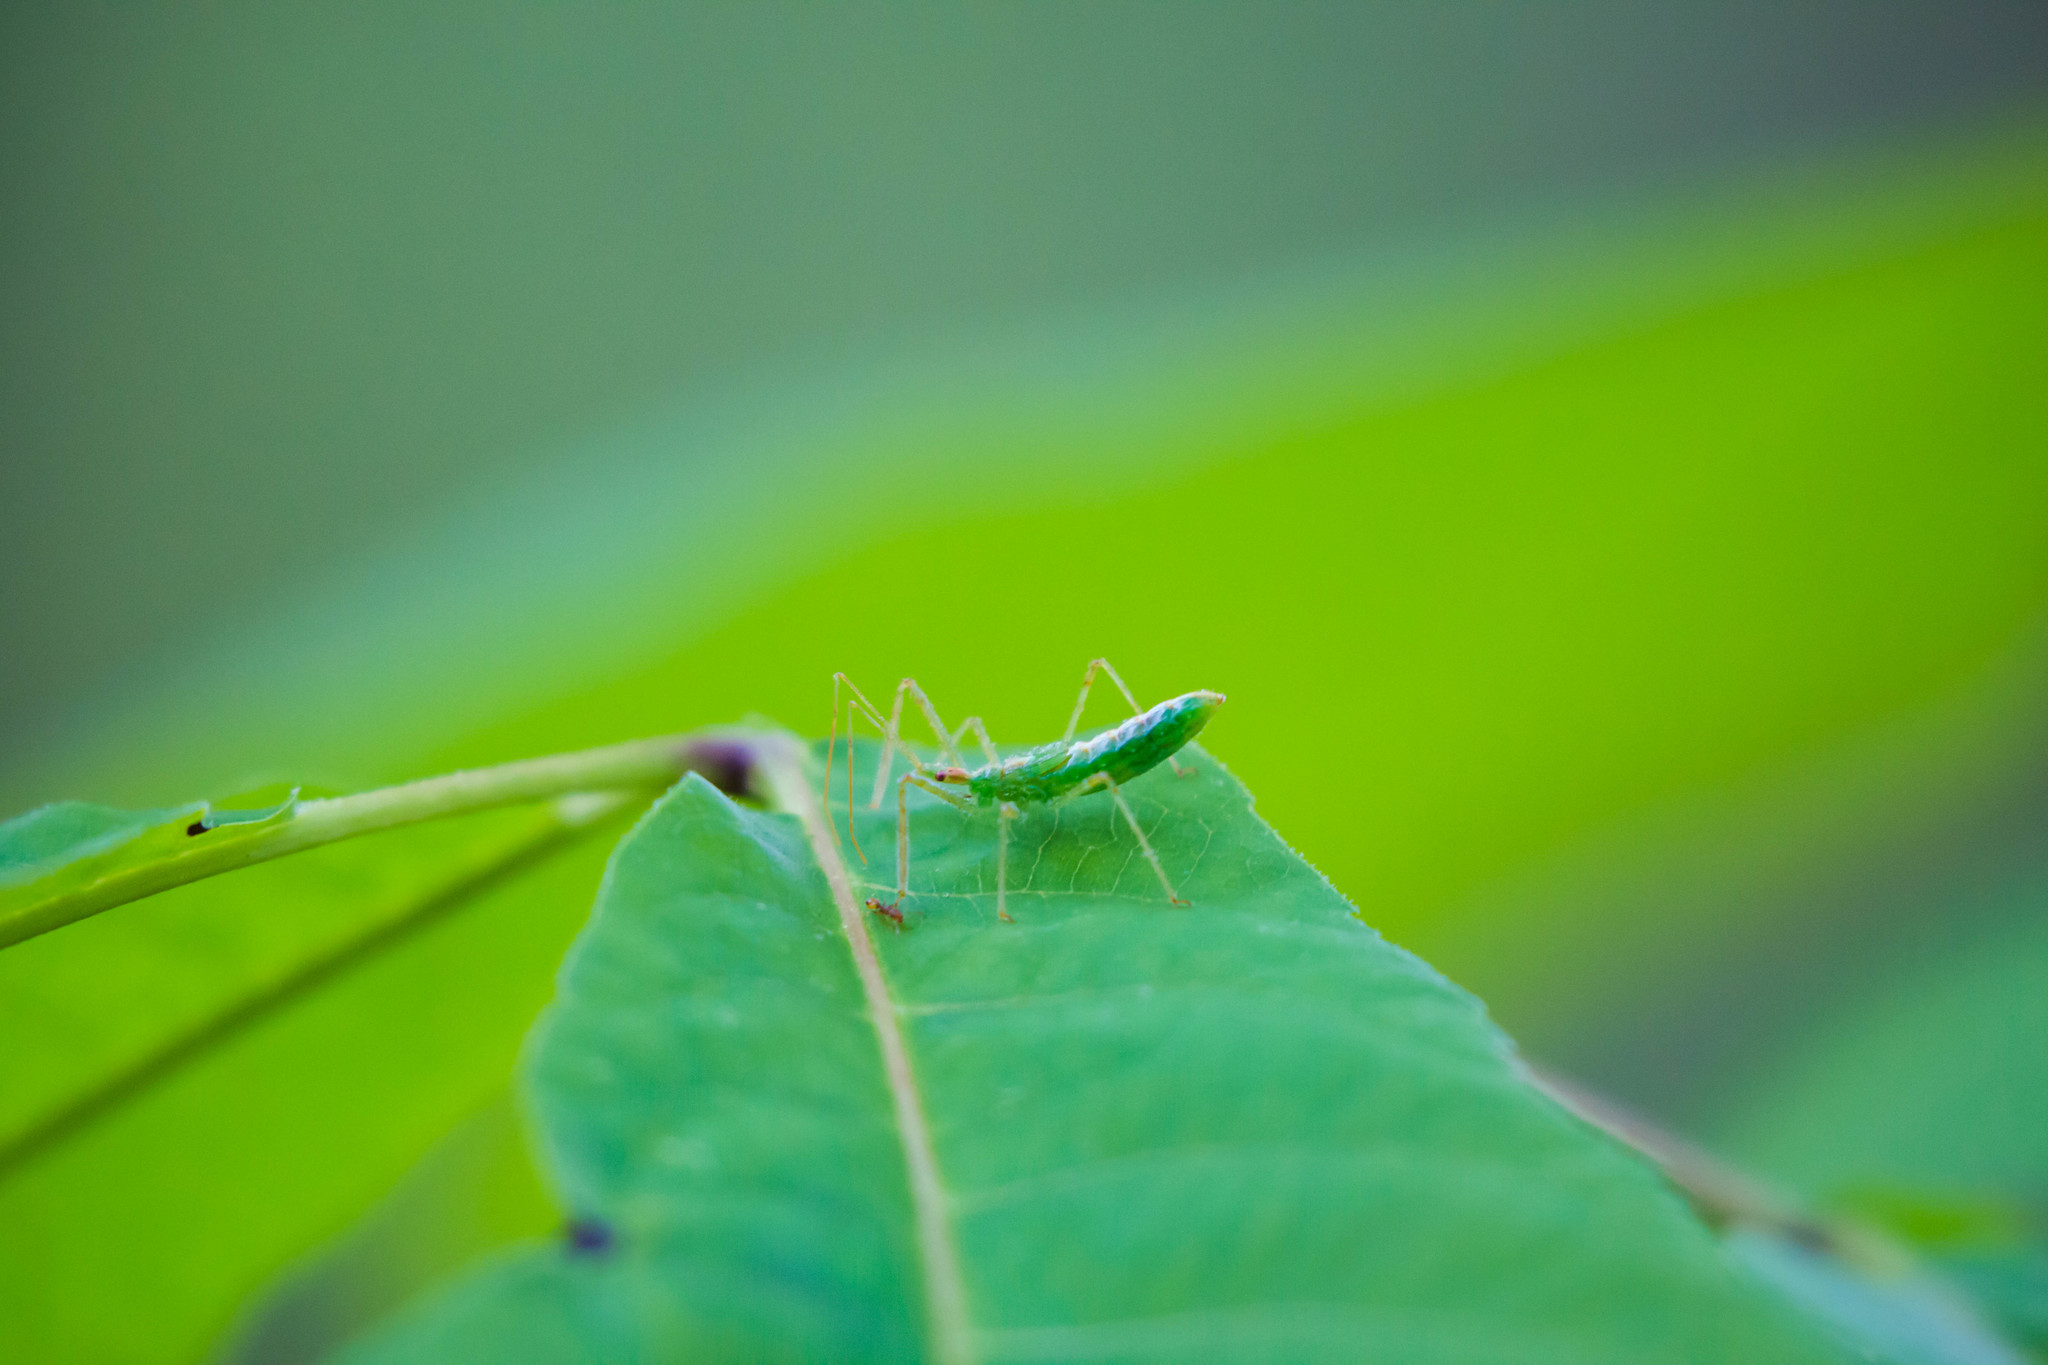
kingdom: Animalia
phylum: Arthropoda
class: Insecta
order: Hemiptera
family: Reduviidae
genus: Zelus
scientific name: Zelus luridus
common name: Pale green assassin bug
